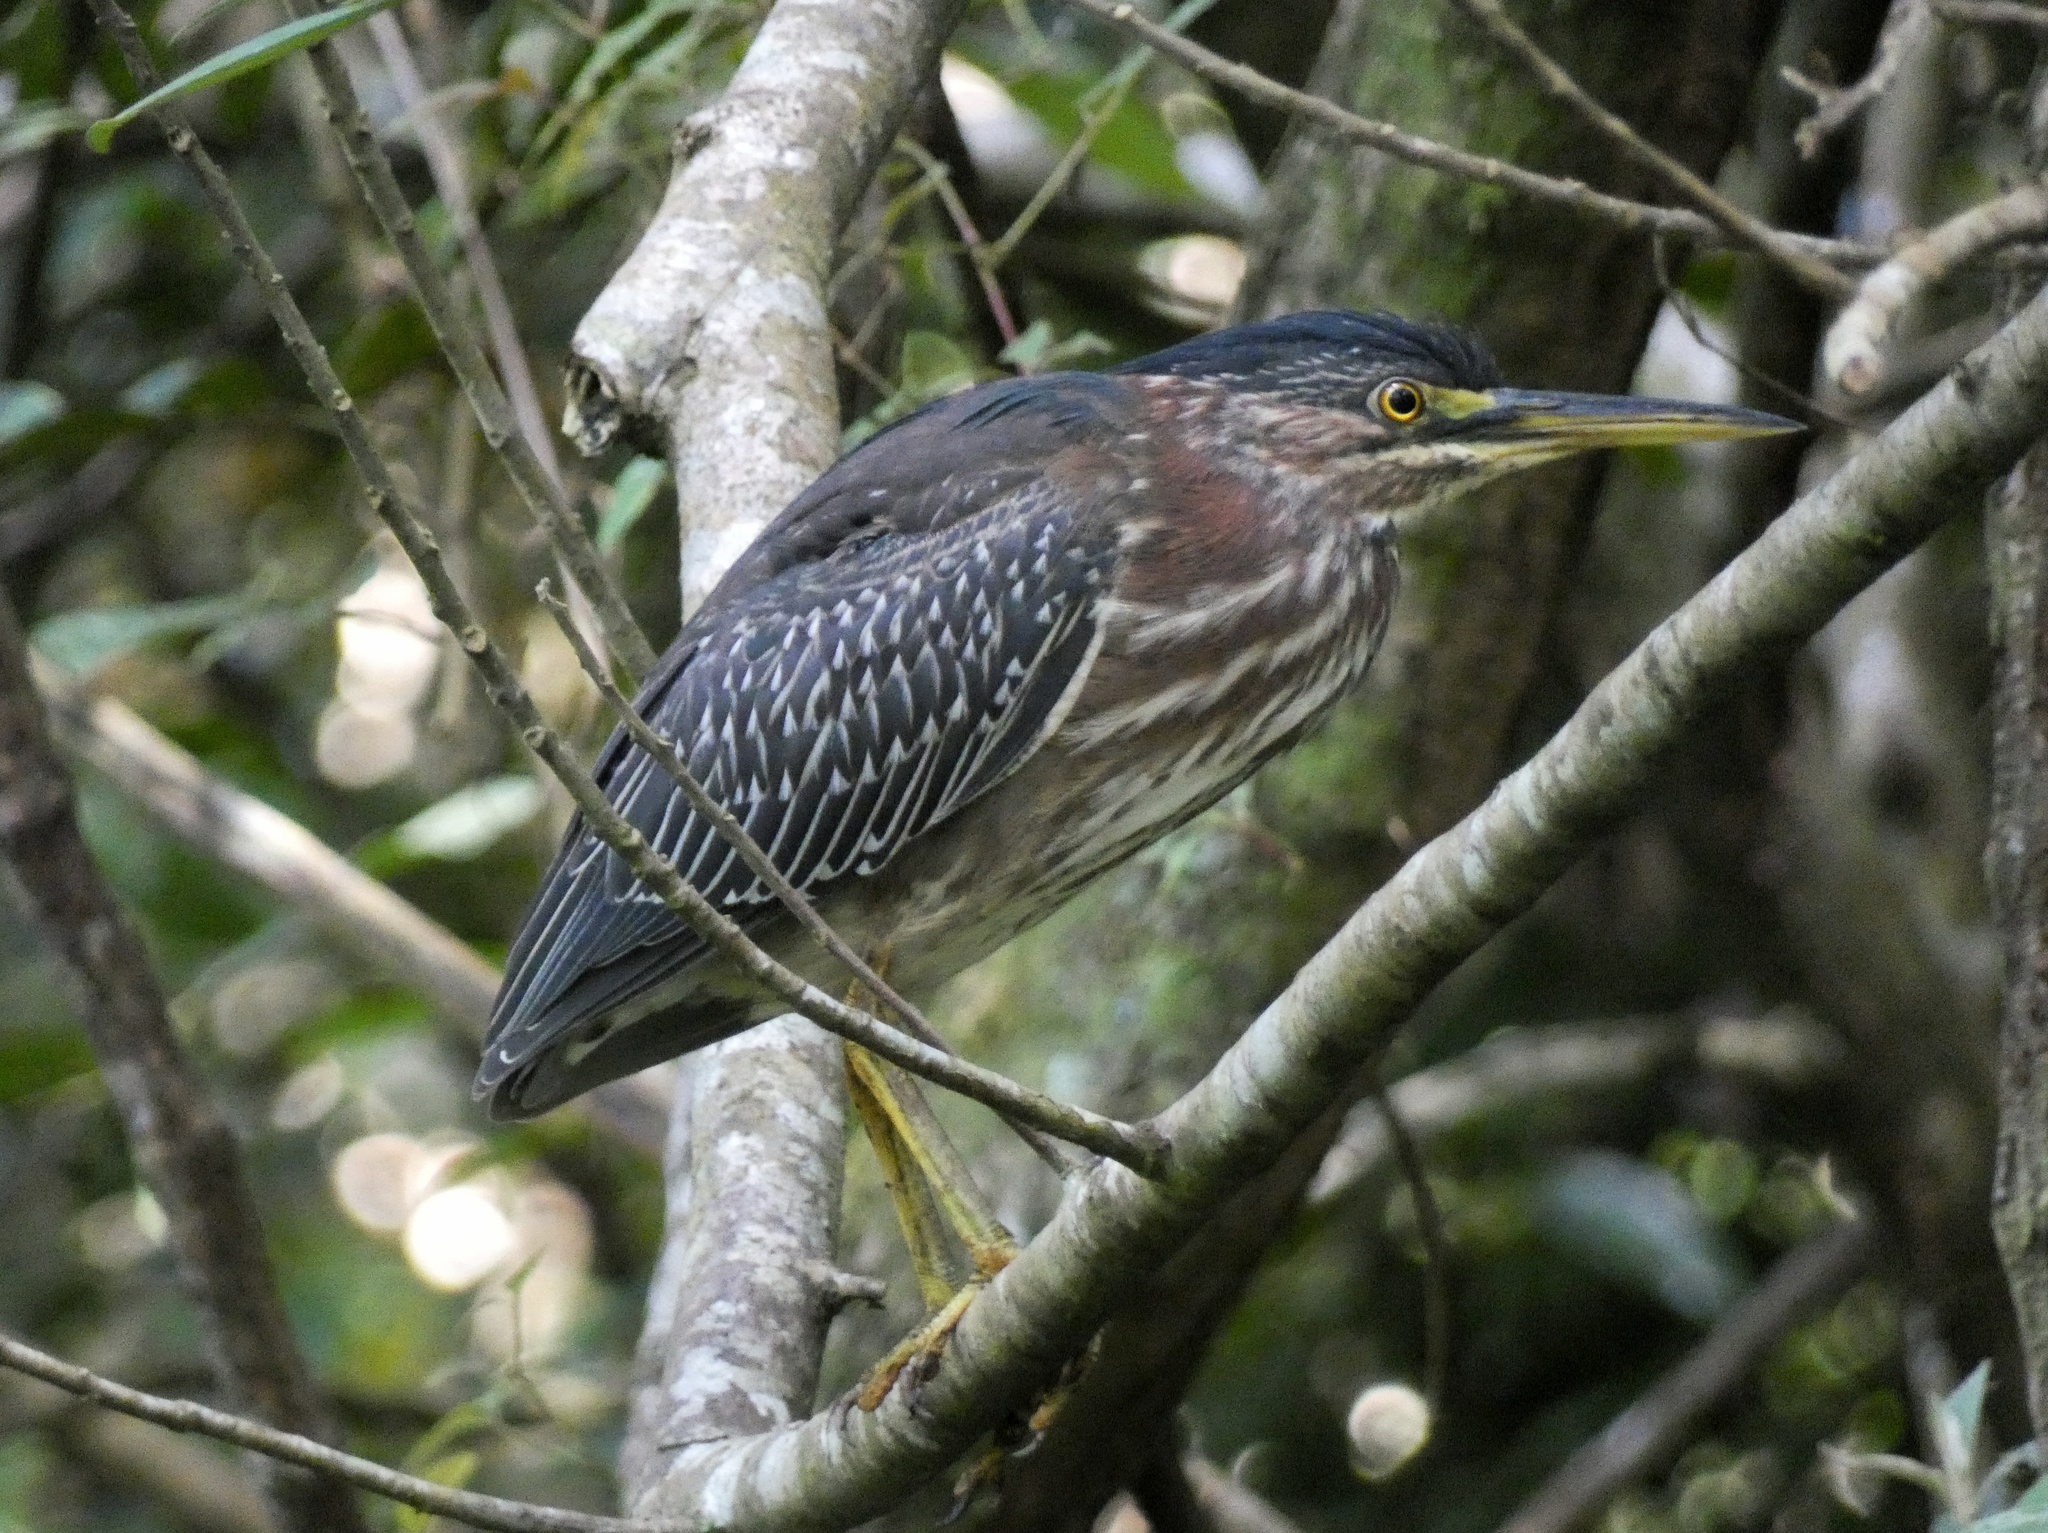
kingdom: Animalia
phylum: Chordata
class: Aves
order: Pelecaniformes
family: Ardeidae
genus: Butorides
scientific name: Butorides virescens
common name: Green heron
